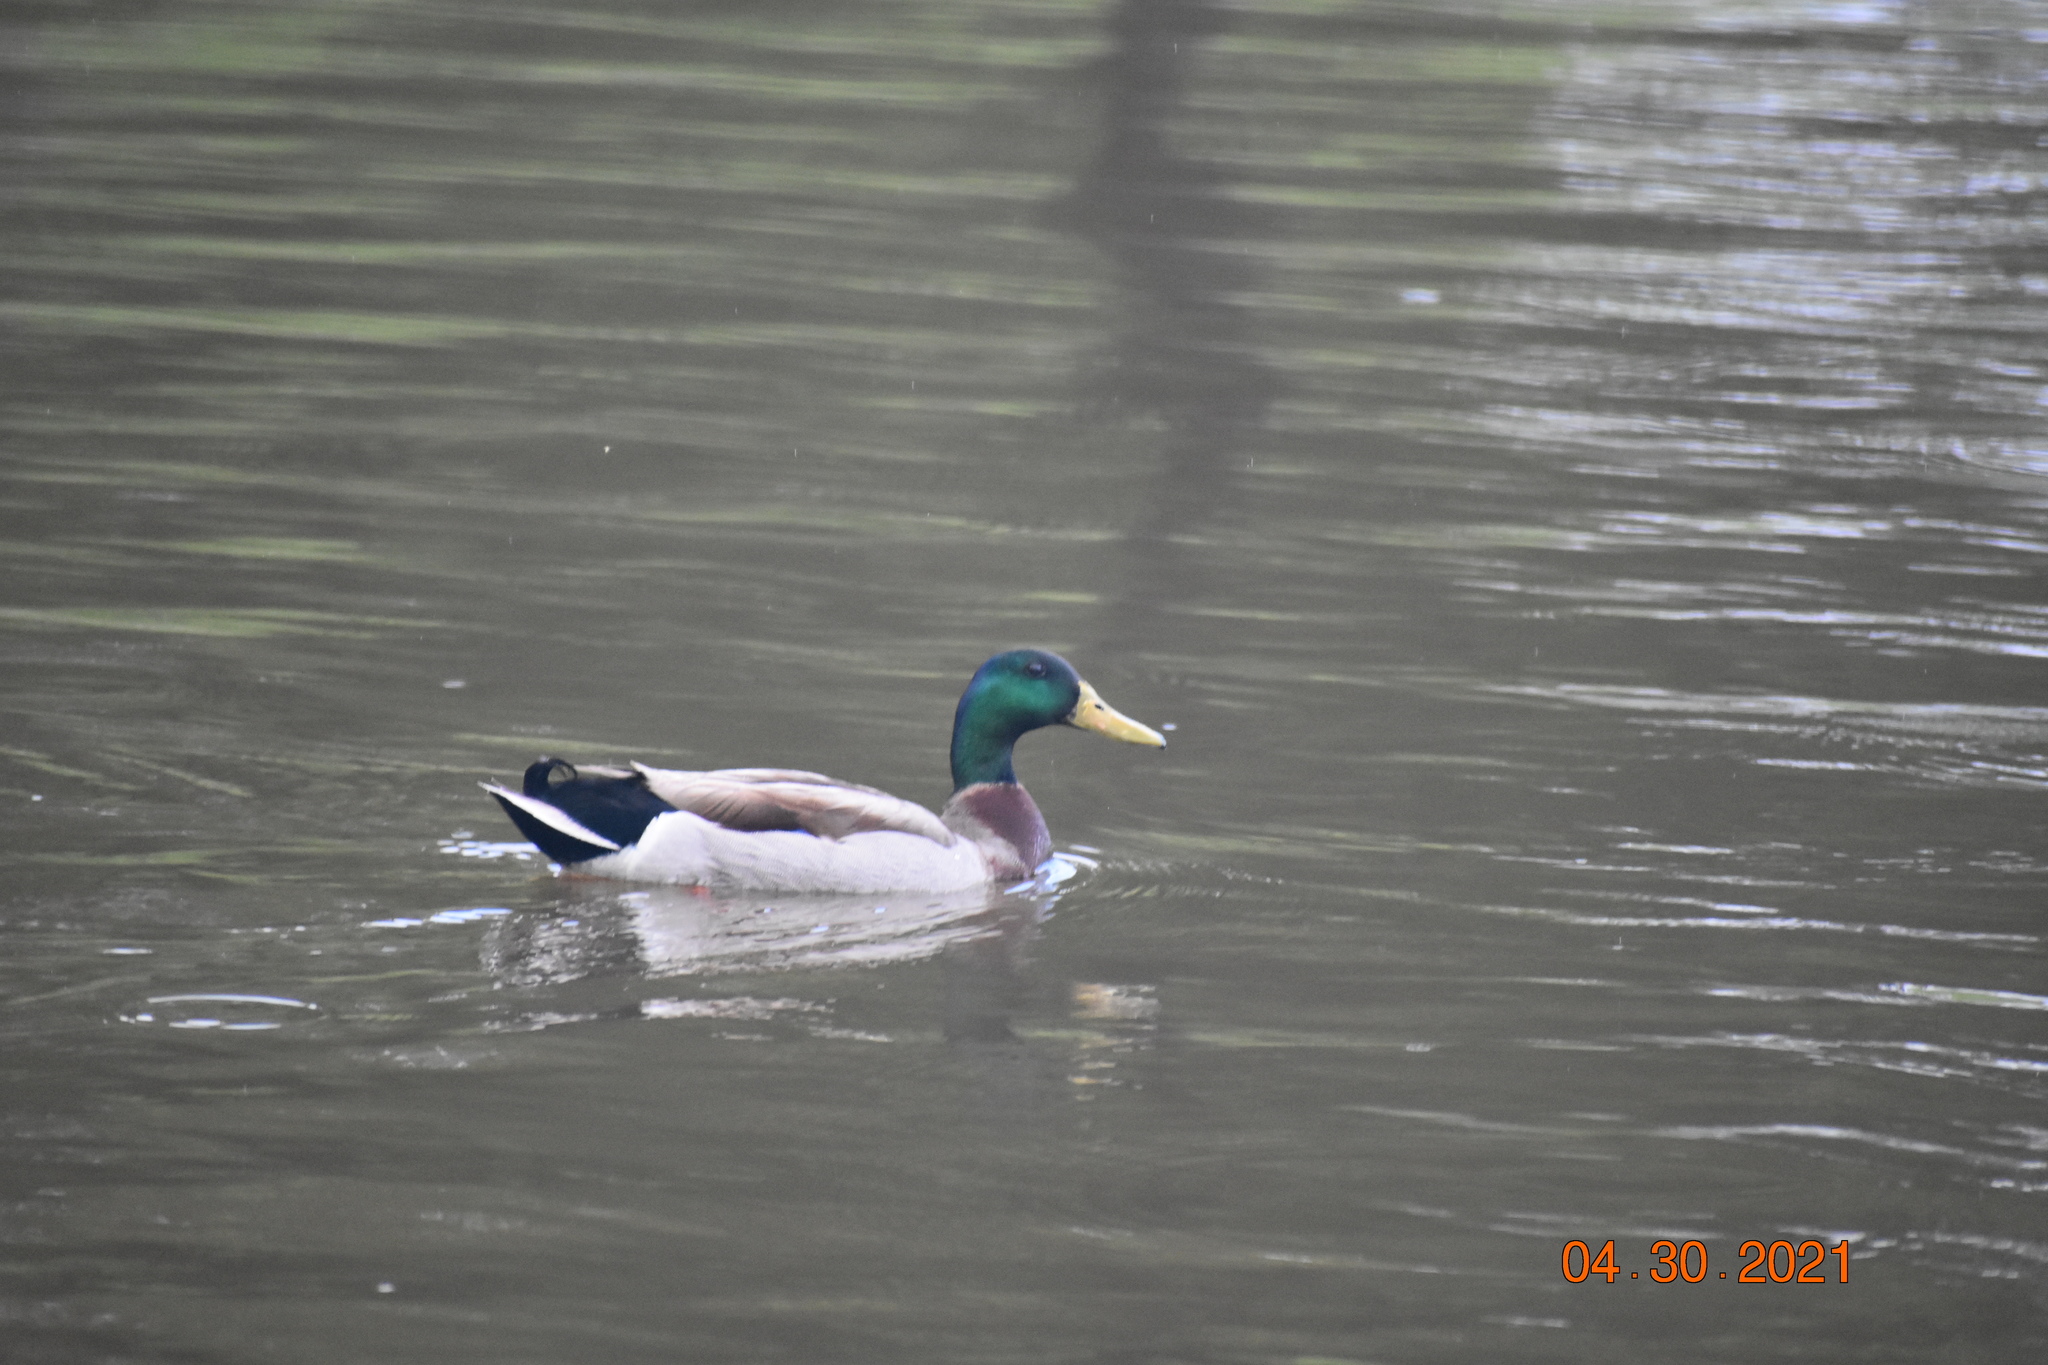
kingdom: Animalia
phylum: Chordata
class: Aves
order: Anseriformes
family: Anatidae
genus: Anas
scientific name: Anas platyrhynchos
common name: Mallard
